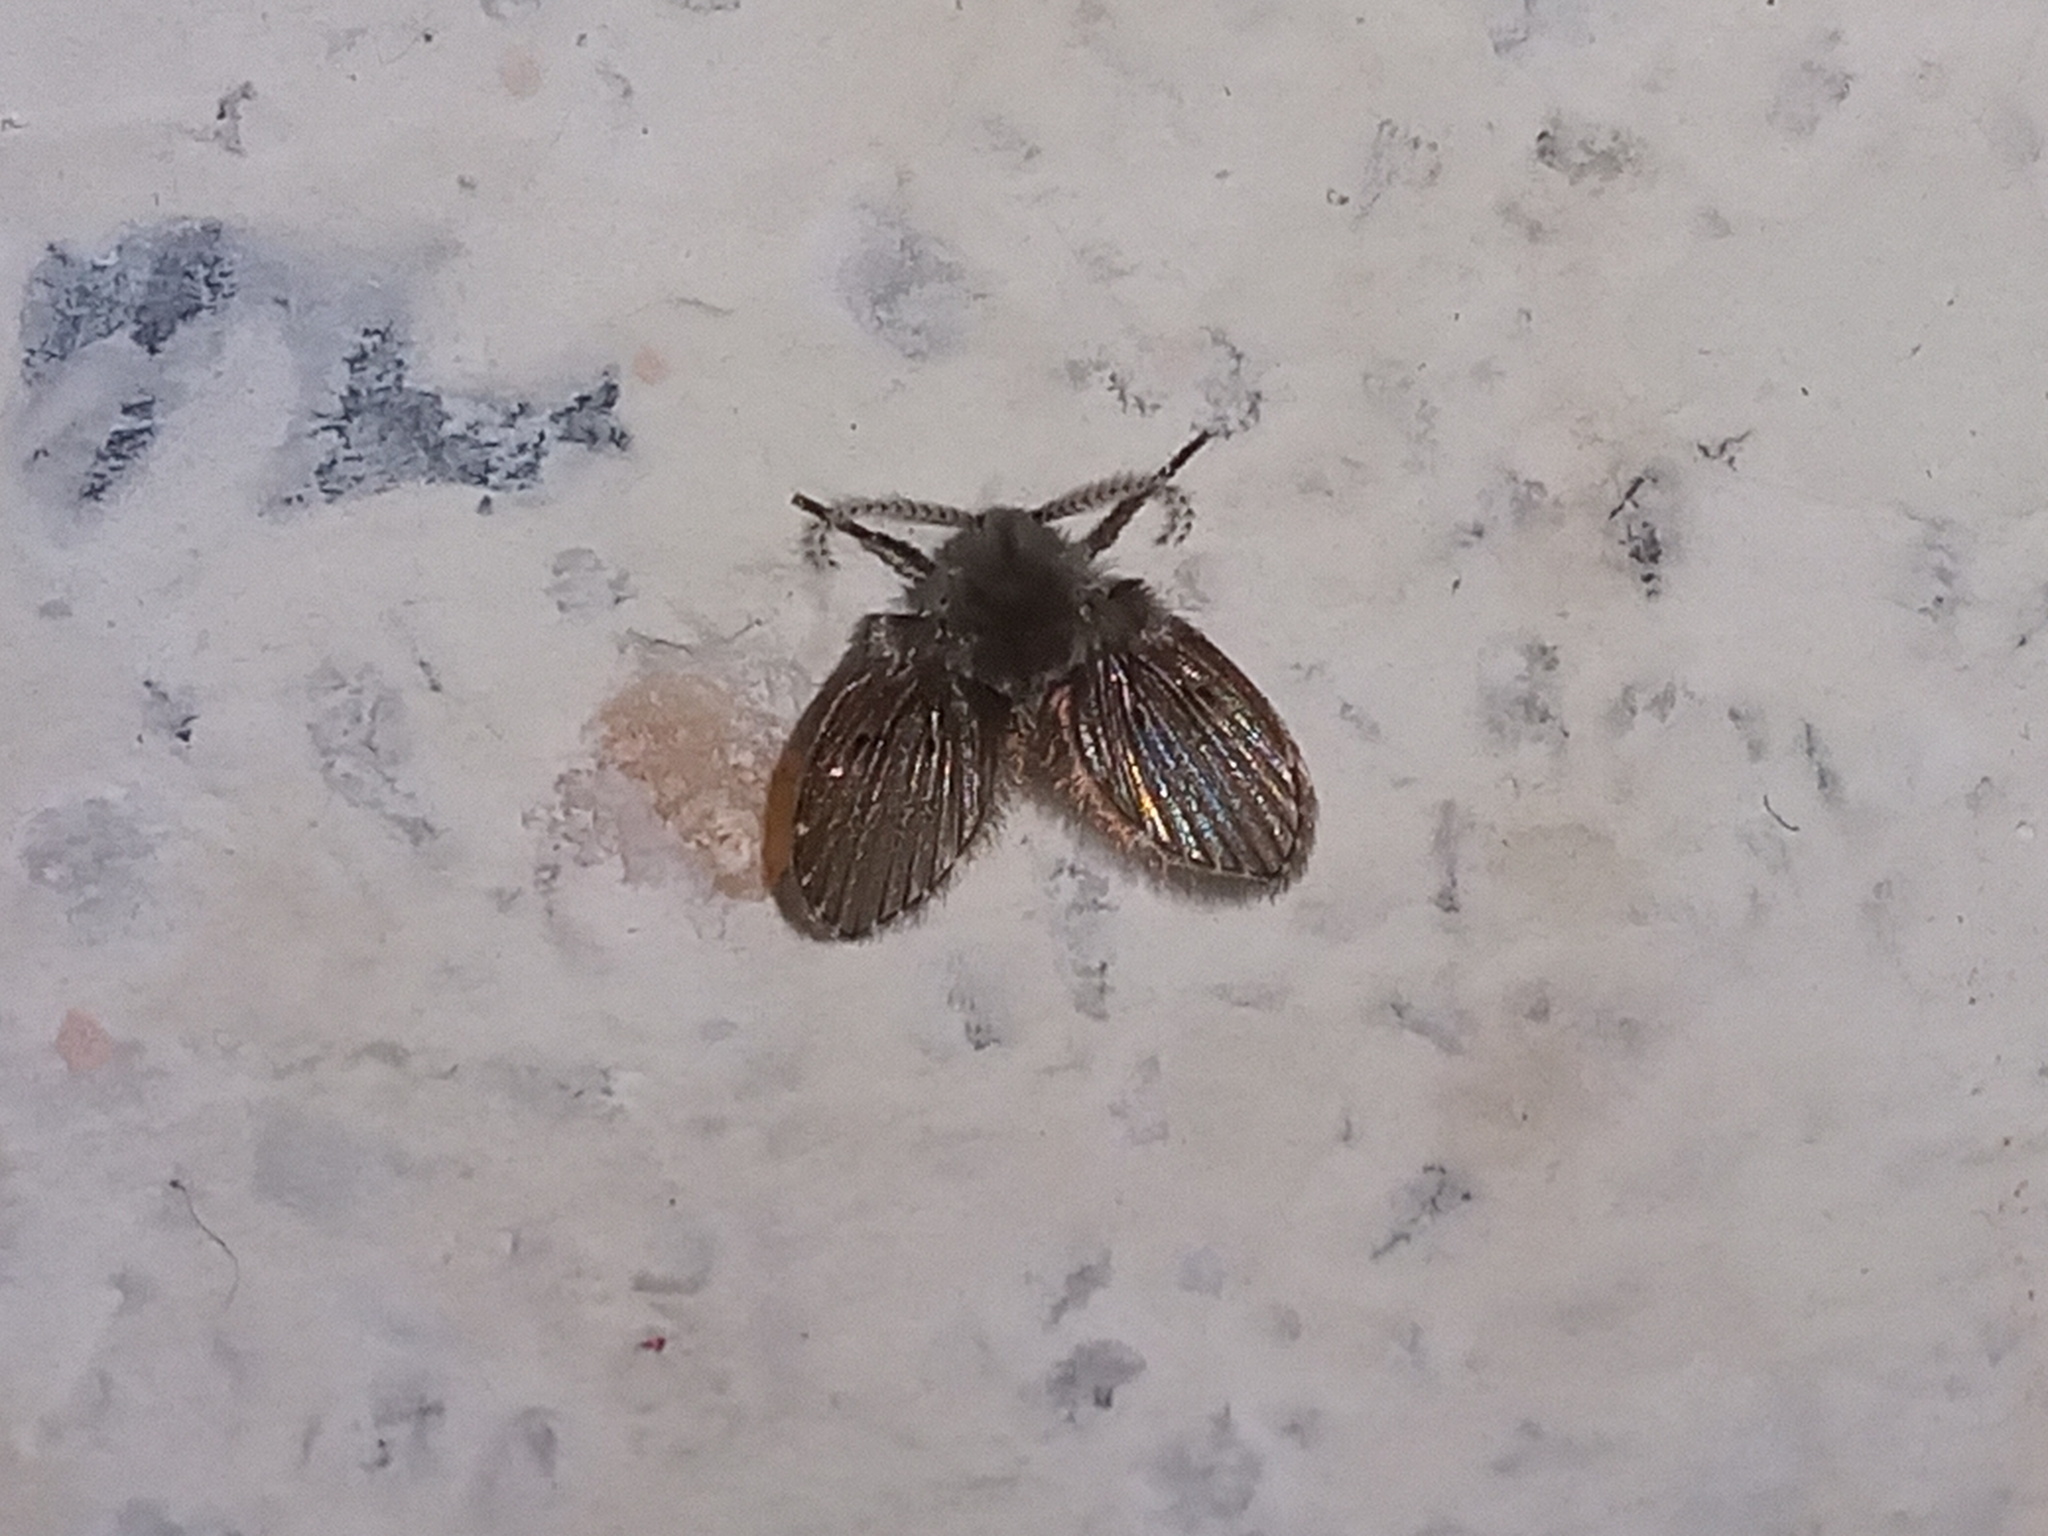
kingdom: Animalia
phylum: Arthropoda
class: Insecta
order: Diptera
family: Psychodidae
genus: Clogmia
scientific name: Clogmia albipunctatus
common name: White-spotted moth fly
